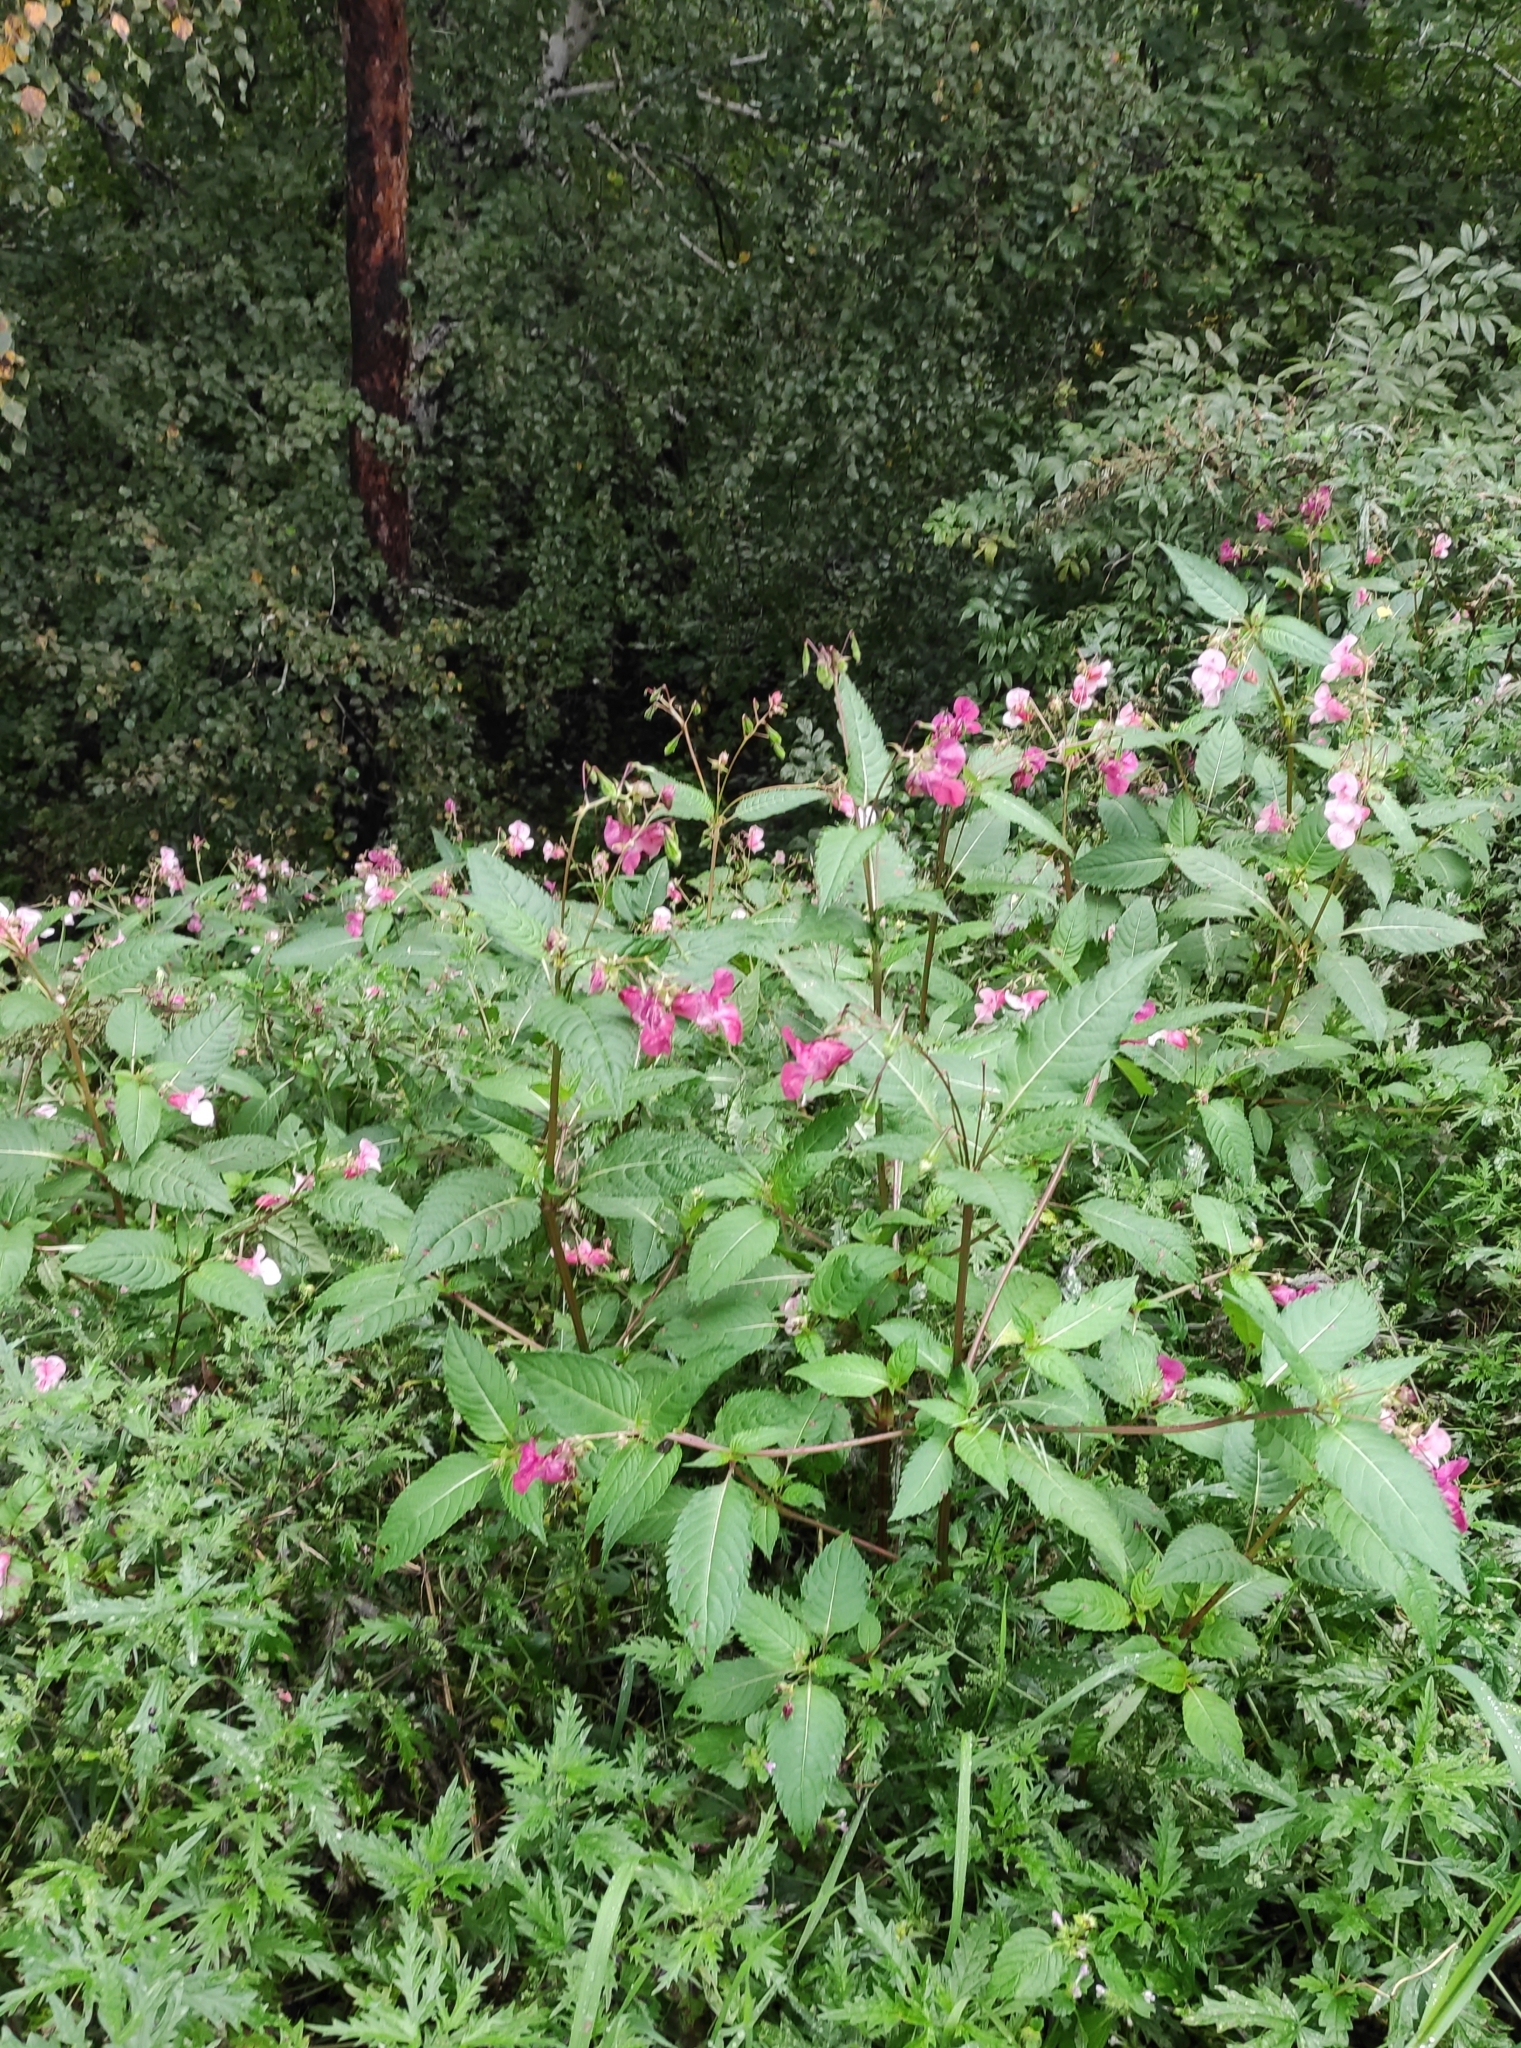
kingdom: Plantae
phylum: Tracheophyta
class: Magnoliopsida
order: Ericales
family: Balsaminaceae
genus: Impatiens
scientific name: Impatiens glandulifera
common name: Himalayan balsam
